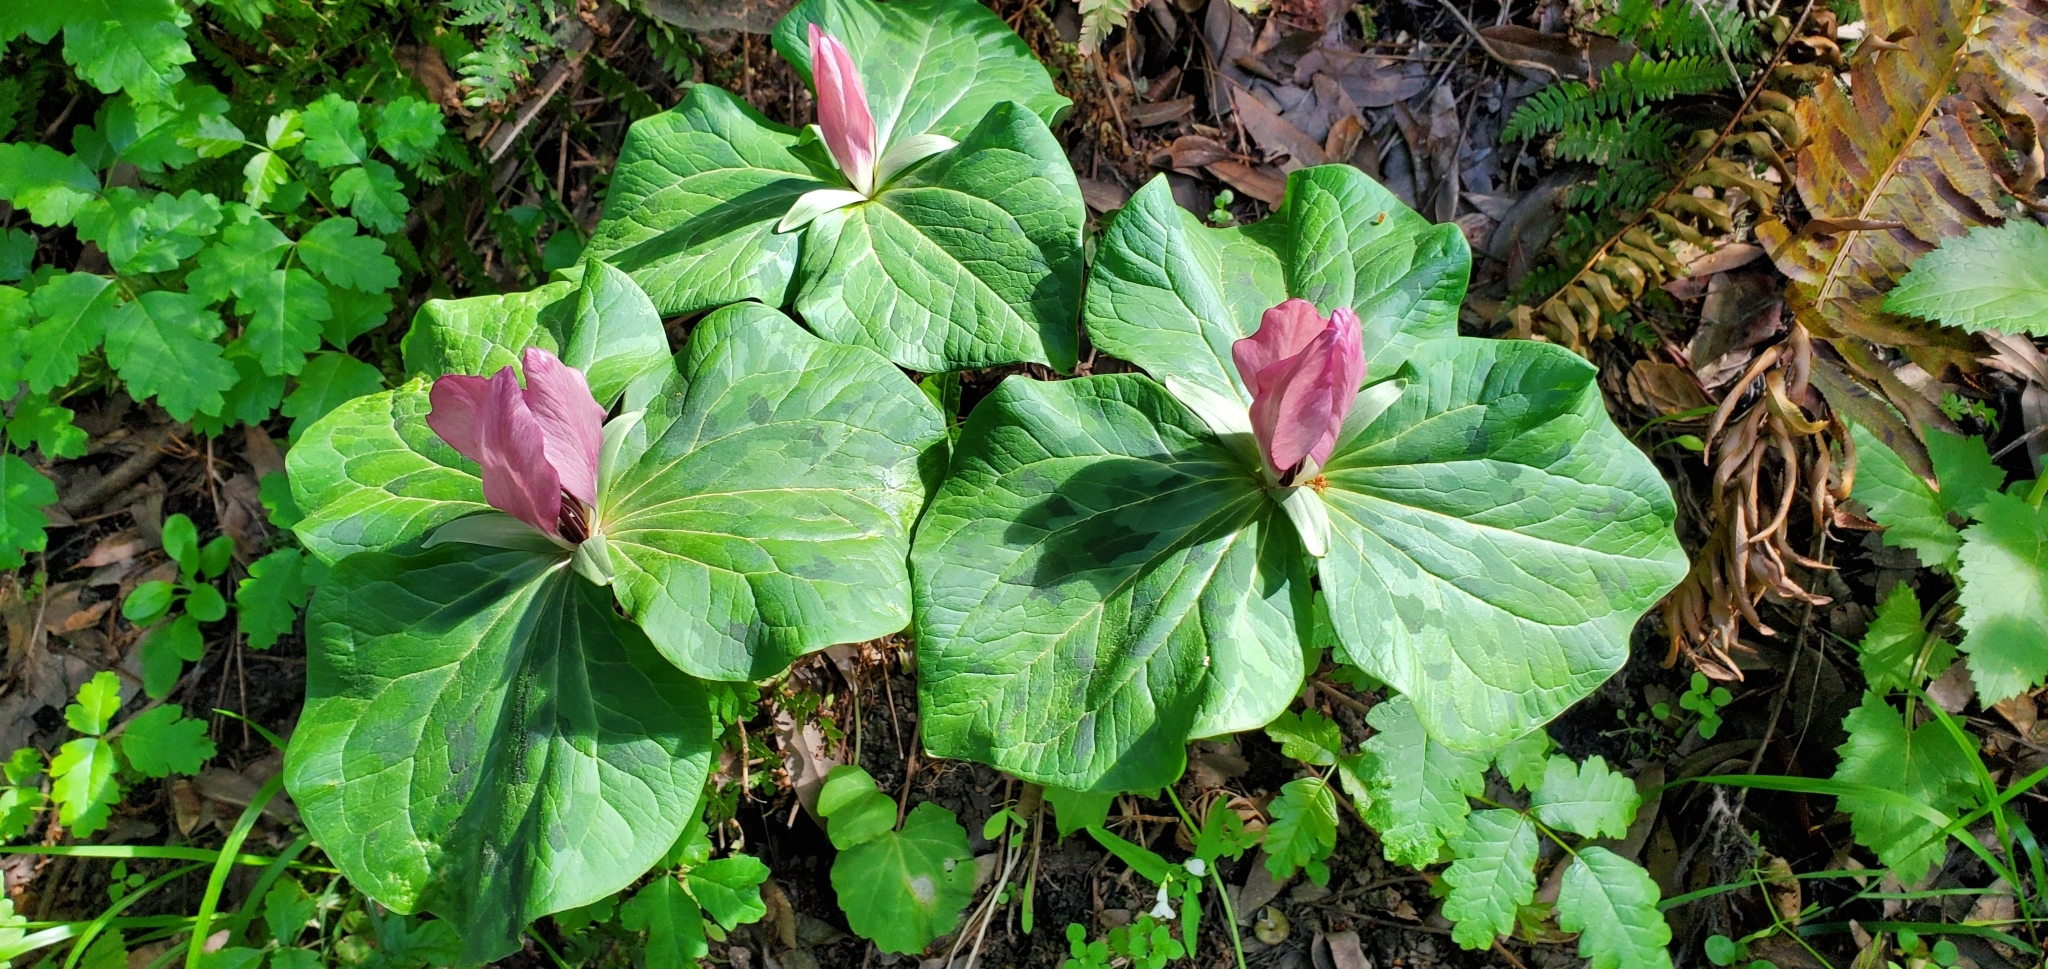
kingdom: Plantae
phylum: Tracheophyta
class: Liliopsida
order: Liliales
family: Melanthiaceae
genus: Trillium
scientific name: Trillium chloropetalum
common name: Giant trillium
